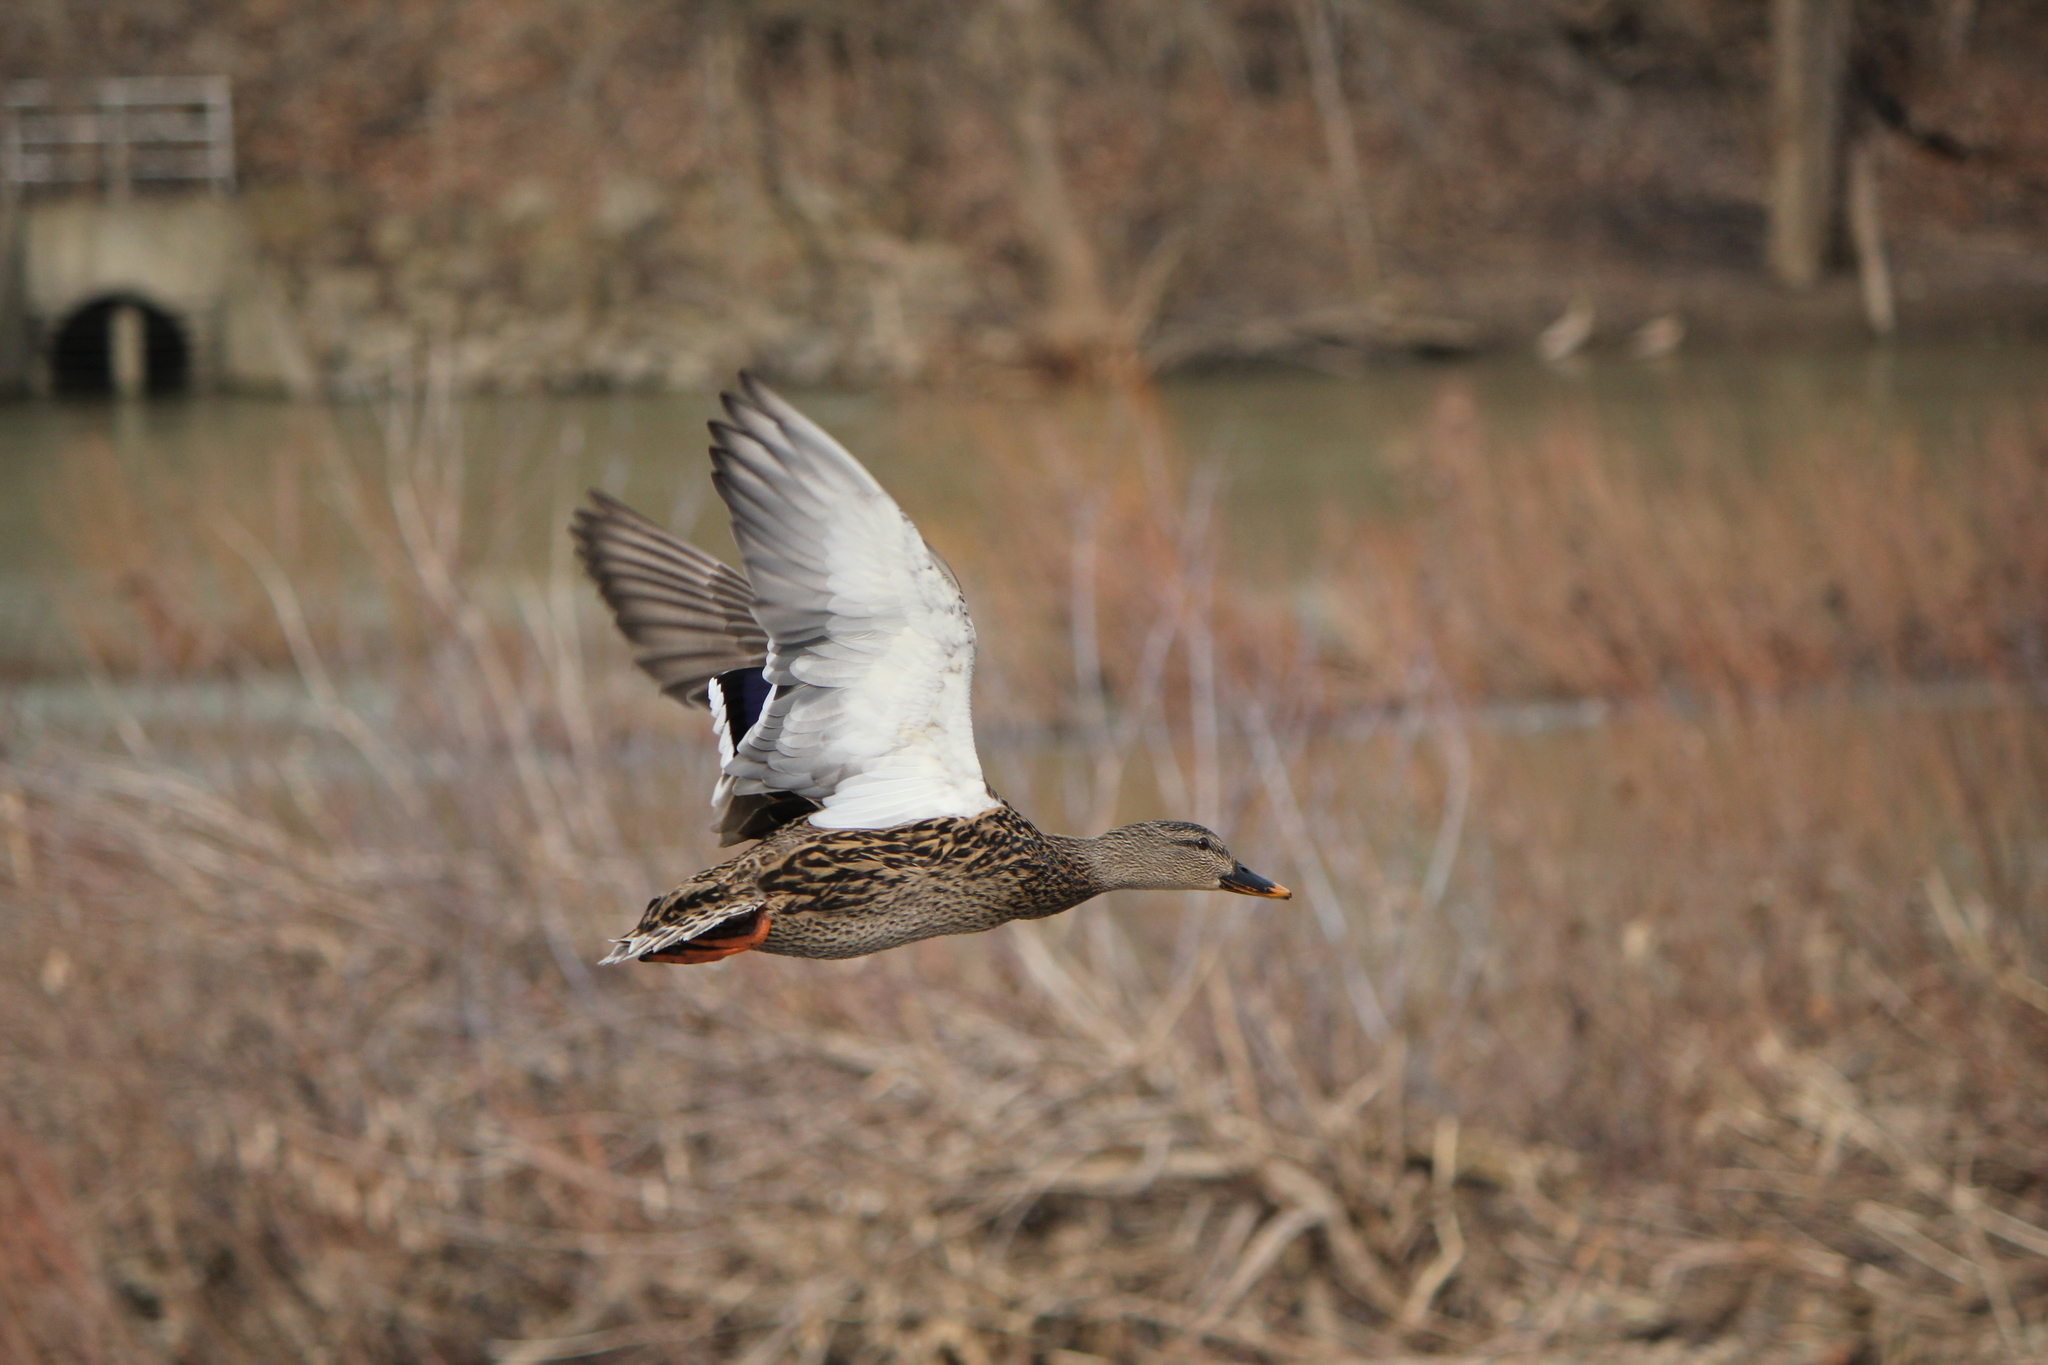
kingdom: Animalia
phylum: Chordata
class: Aves
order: Anseriformes
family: Anatidae
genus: Anas
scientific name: Anas platyrhynchos
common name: Mallard
